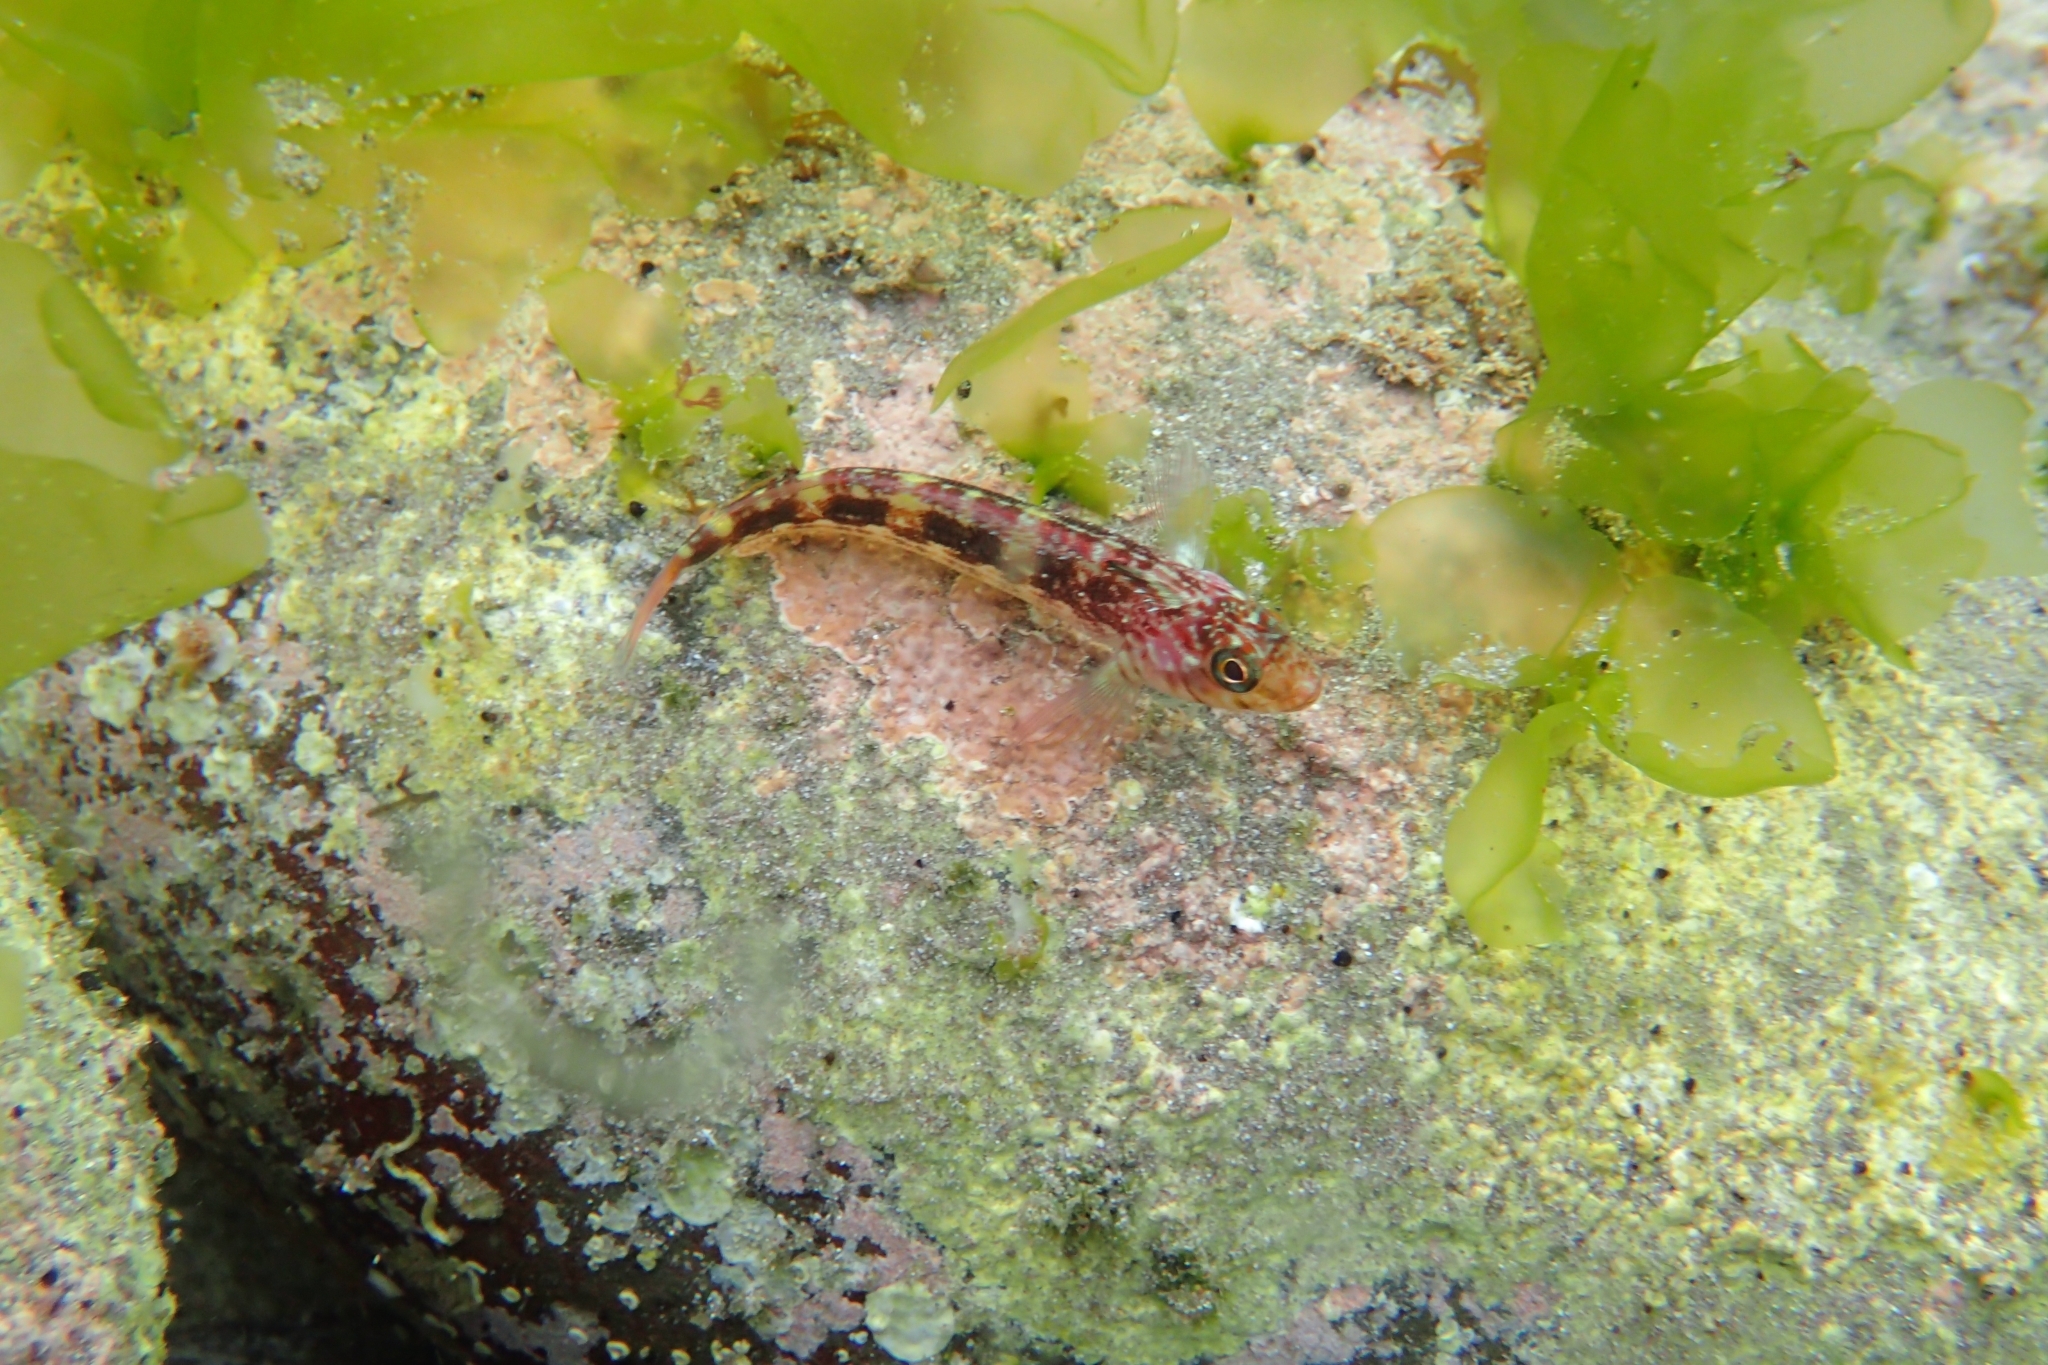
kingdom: Animalia
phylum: Chordata
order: Perciformes
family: Tripterygiidae
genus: Forsterygion
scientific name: Forsterygion varium
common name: Variable triplefin
